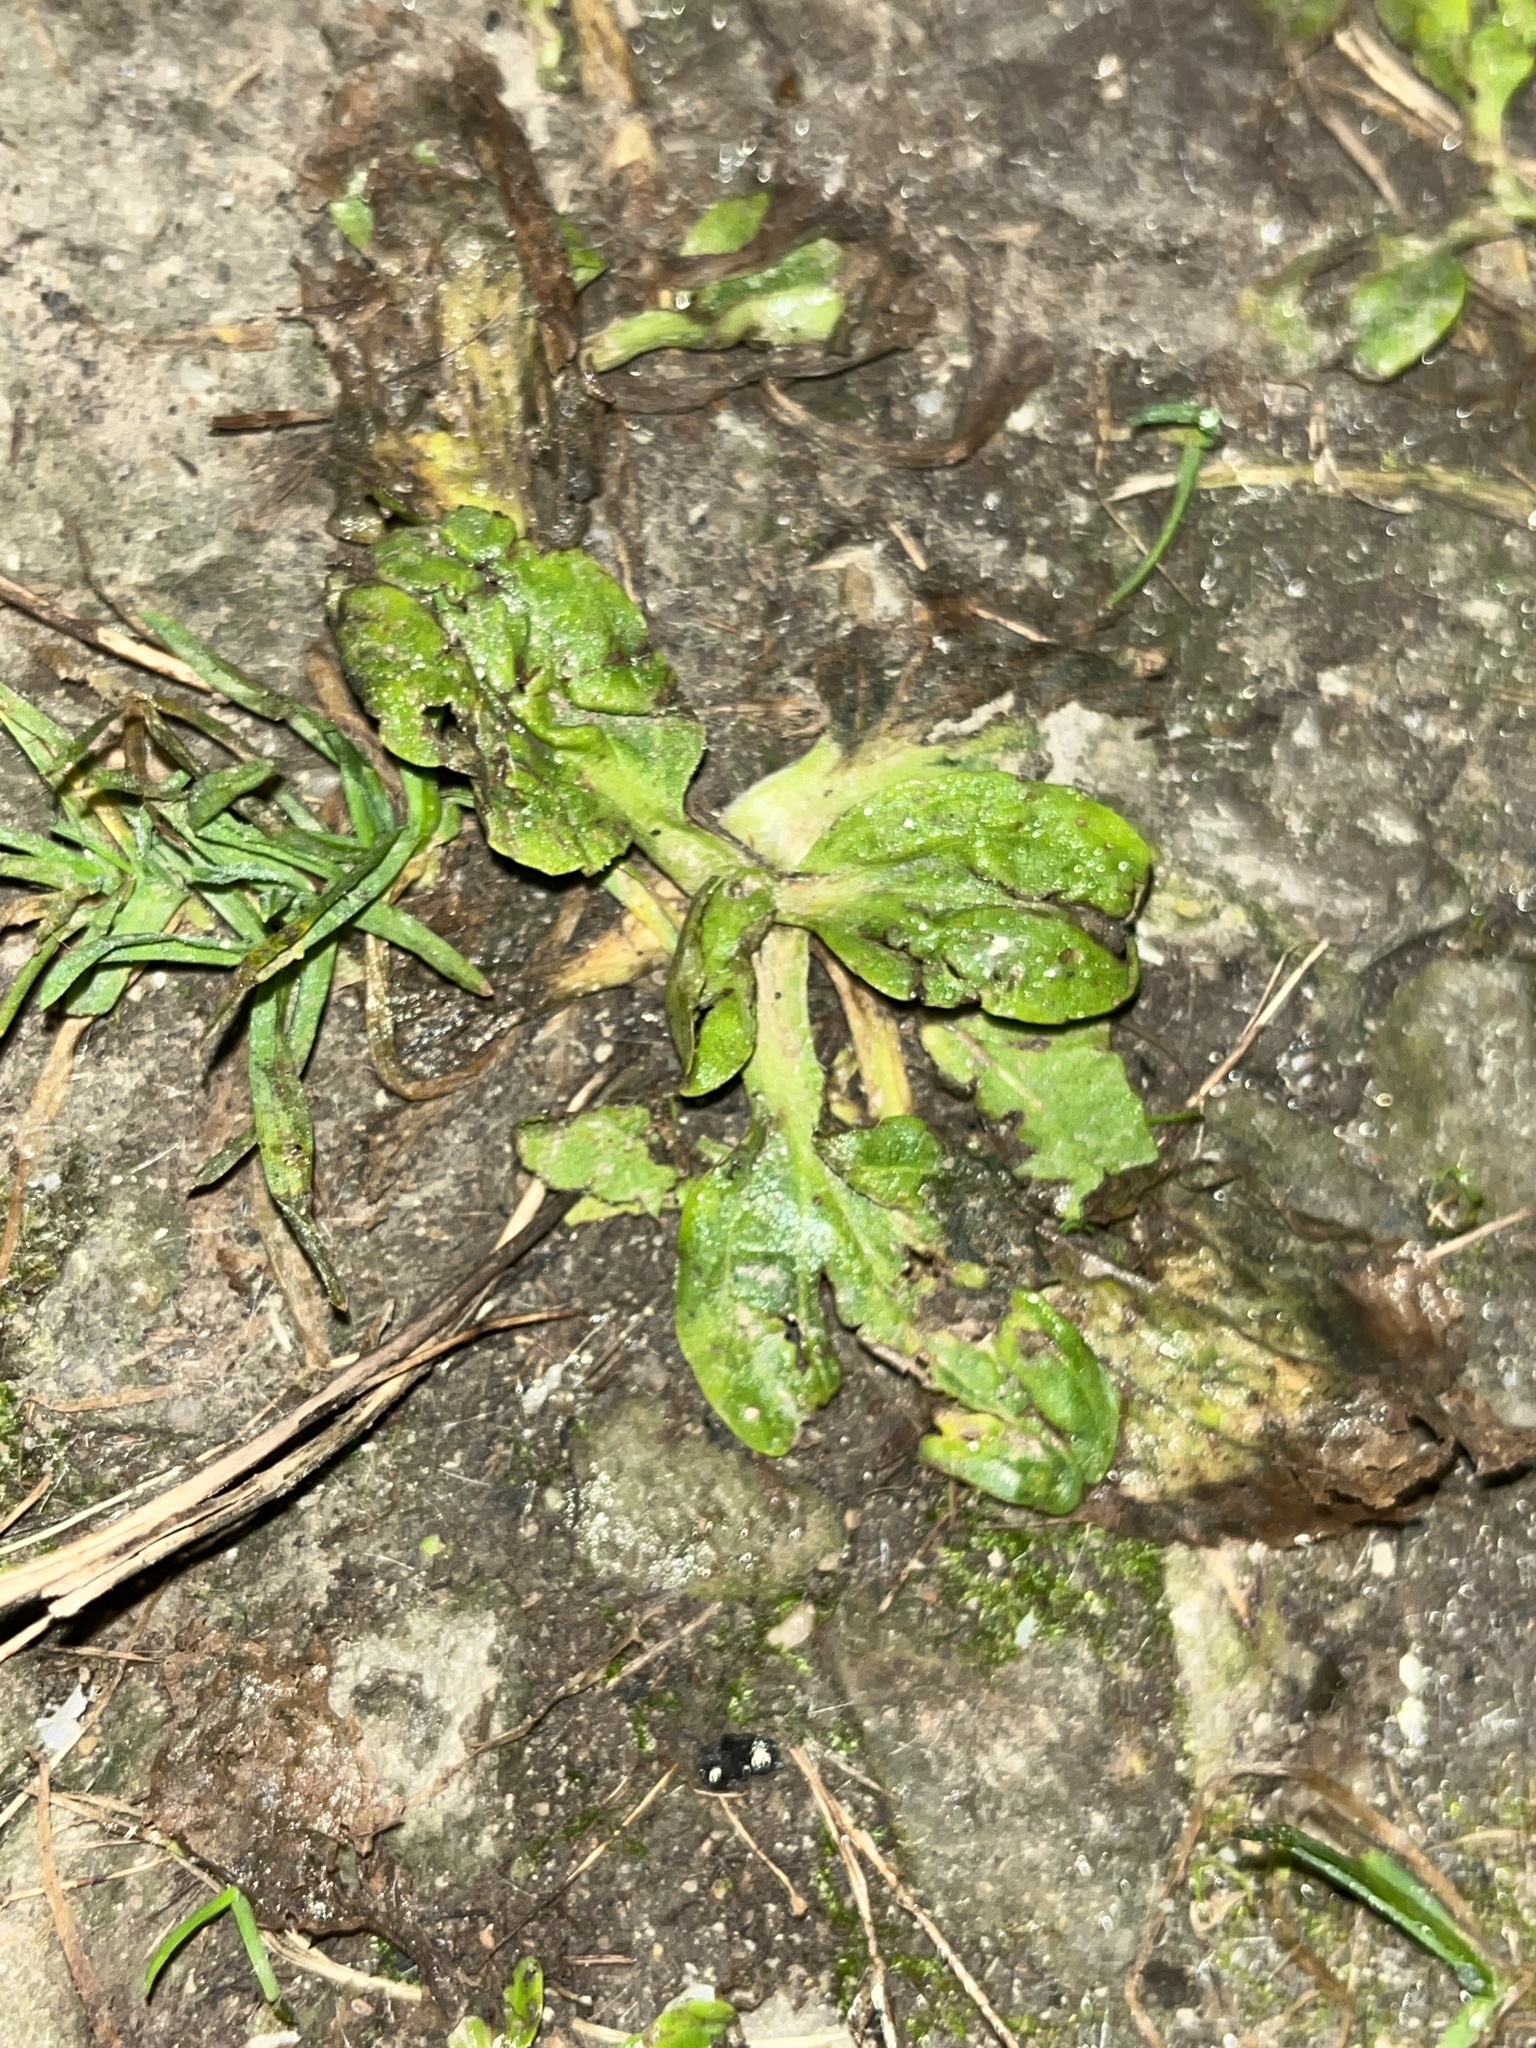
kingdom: Plantae
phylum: Tracheophyta
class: Magnoliopsida
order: Lamiales
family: Plantaginaceae
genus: Plantago
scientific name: Plantago rugelii
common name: American plantain
